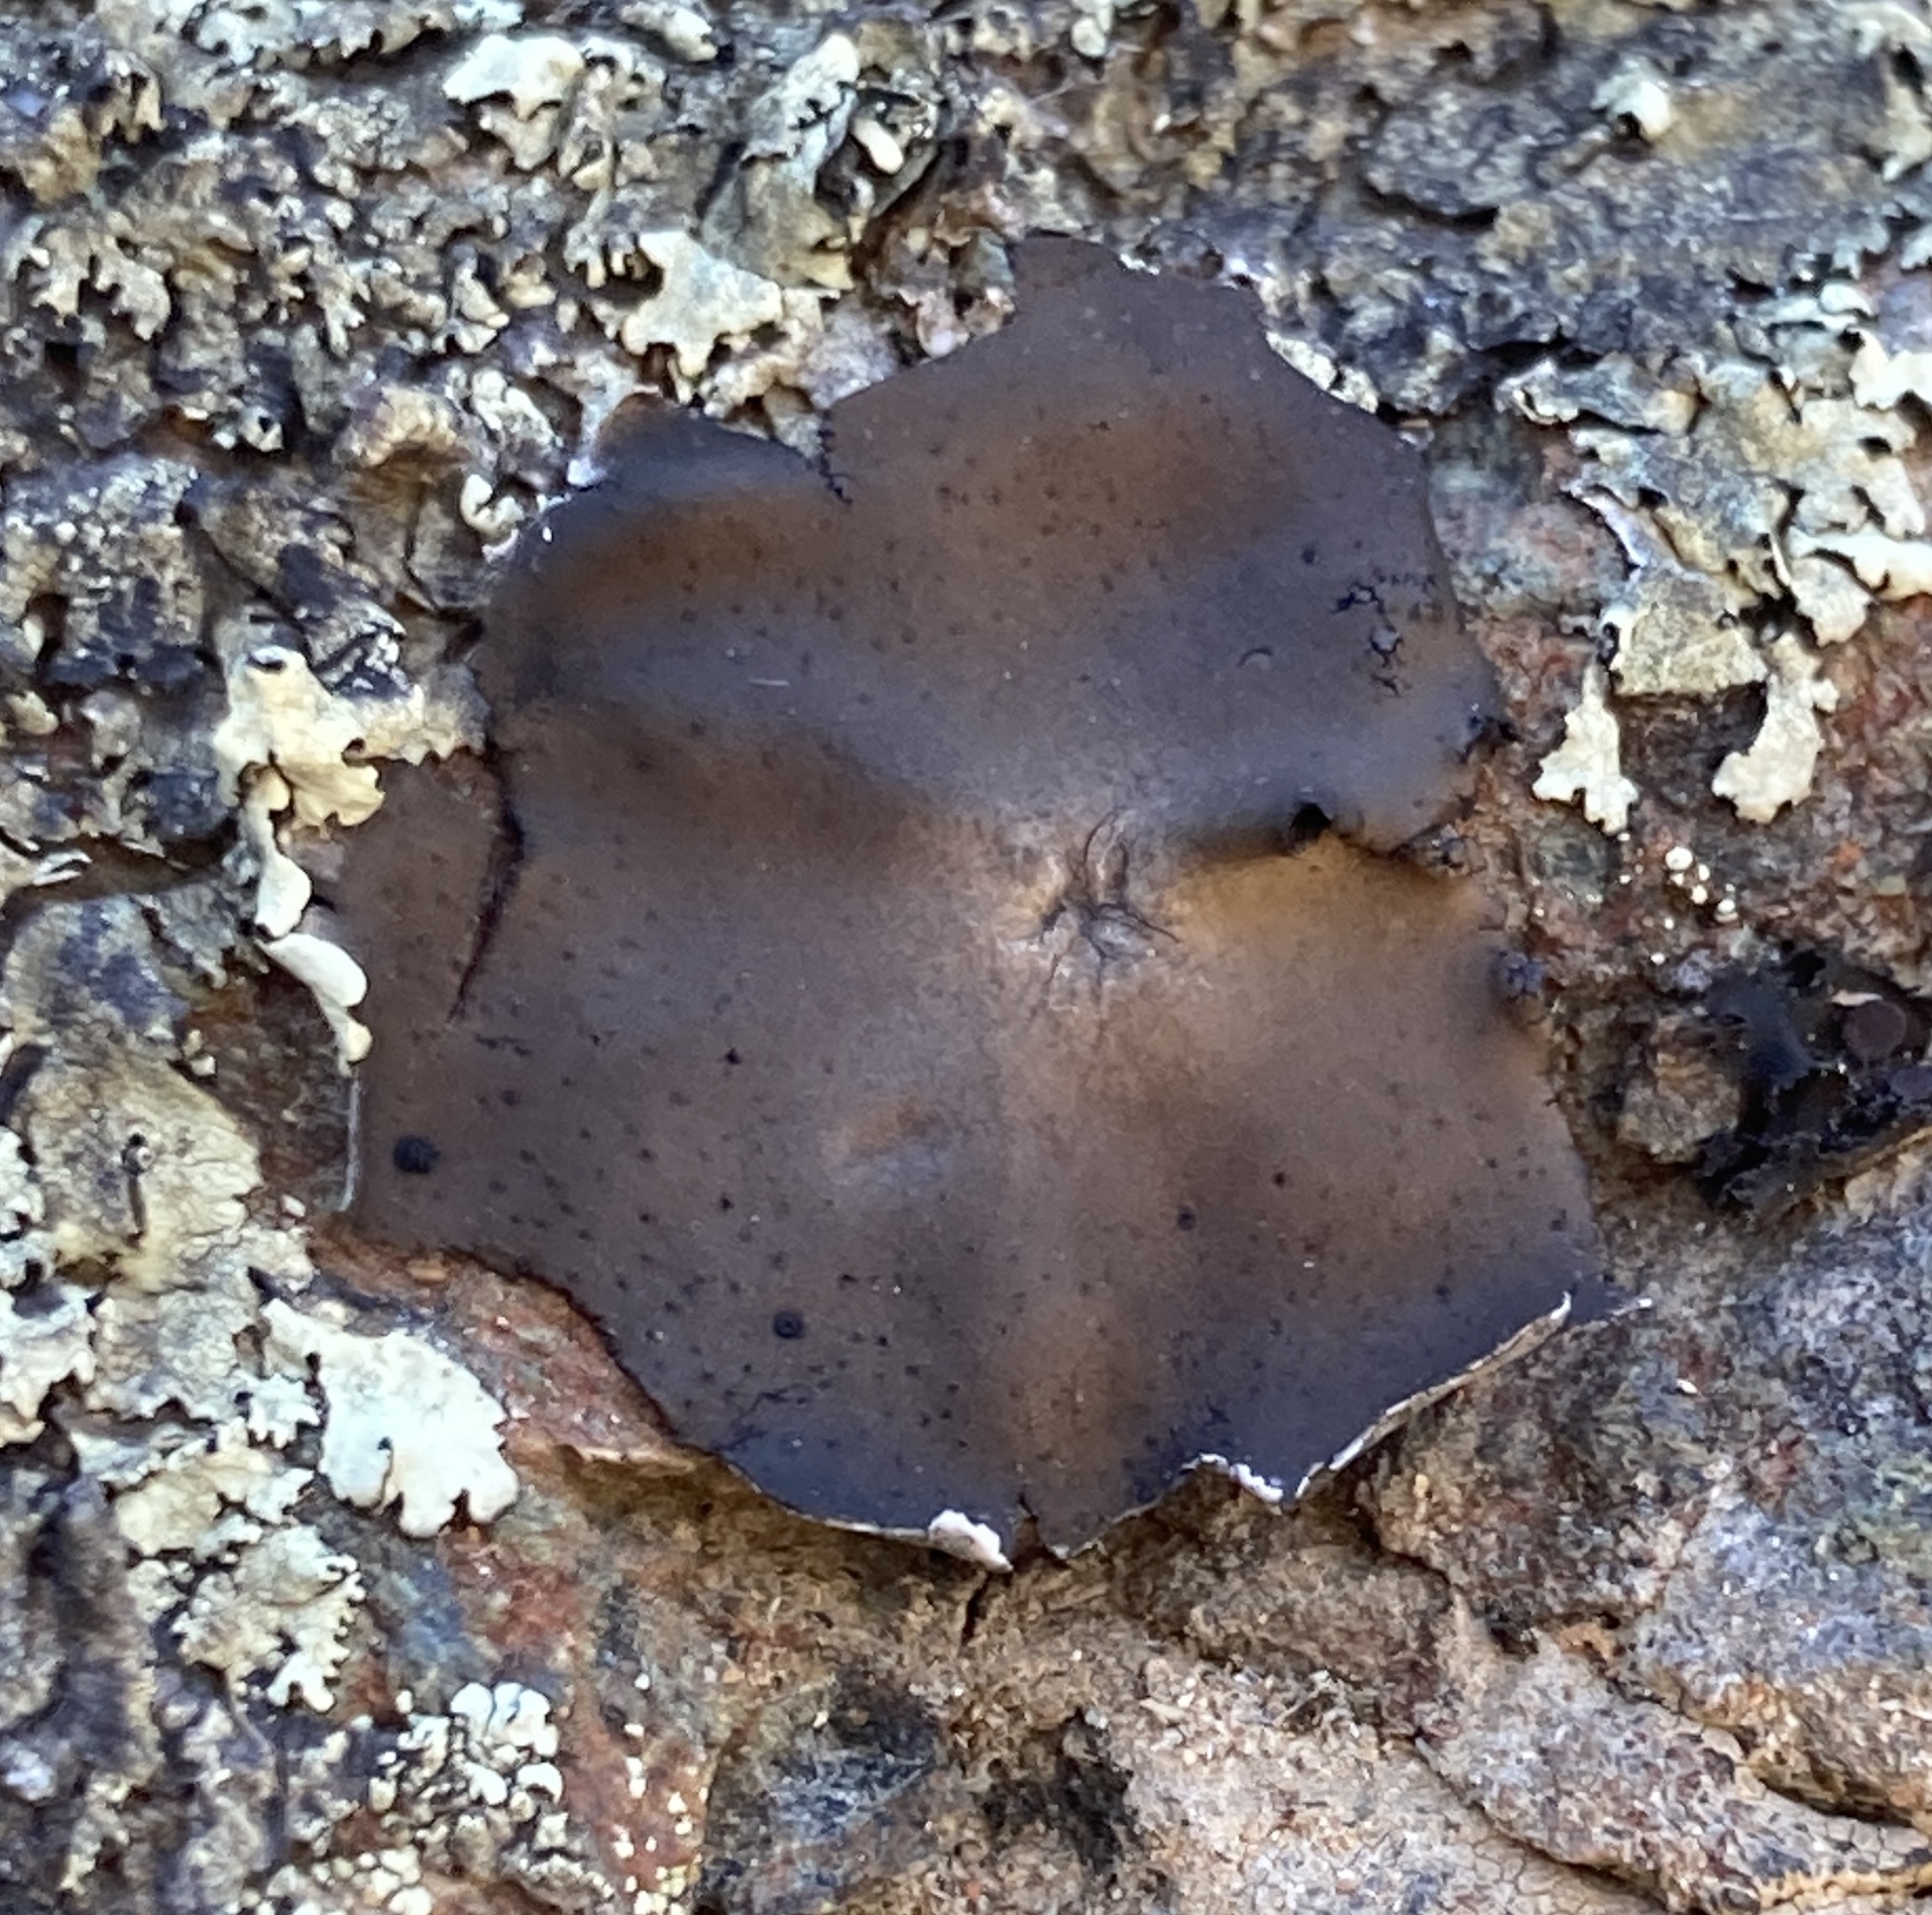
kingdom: Fungi
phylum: Ascomycota
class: Lecanoromycetes
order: Umbilicariales
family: Umbilicariaceae
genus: Umbilicaria
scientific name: Umbilicaria phaea
